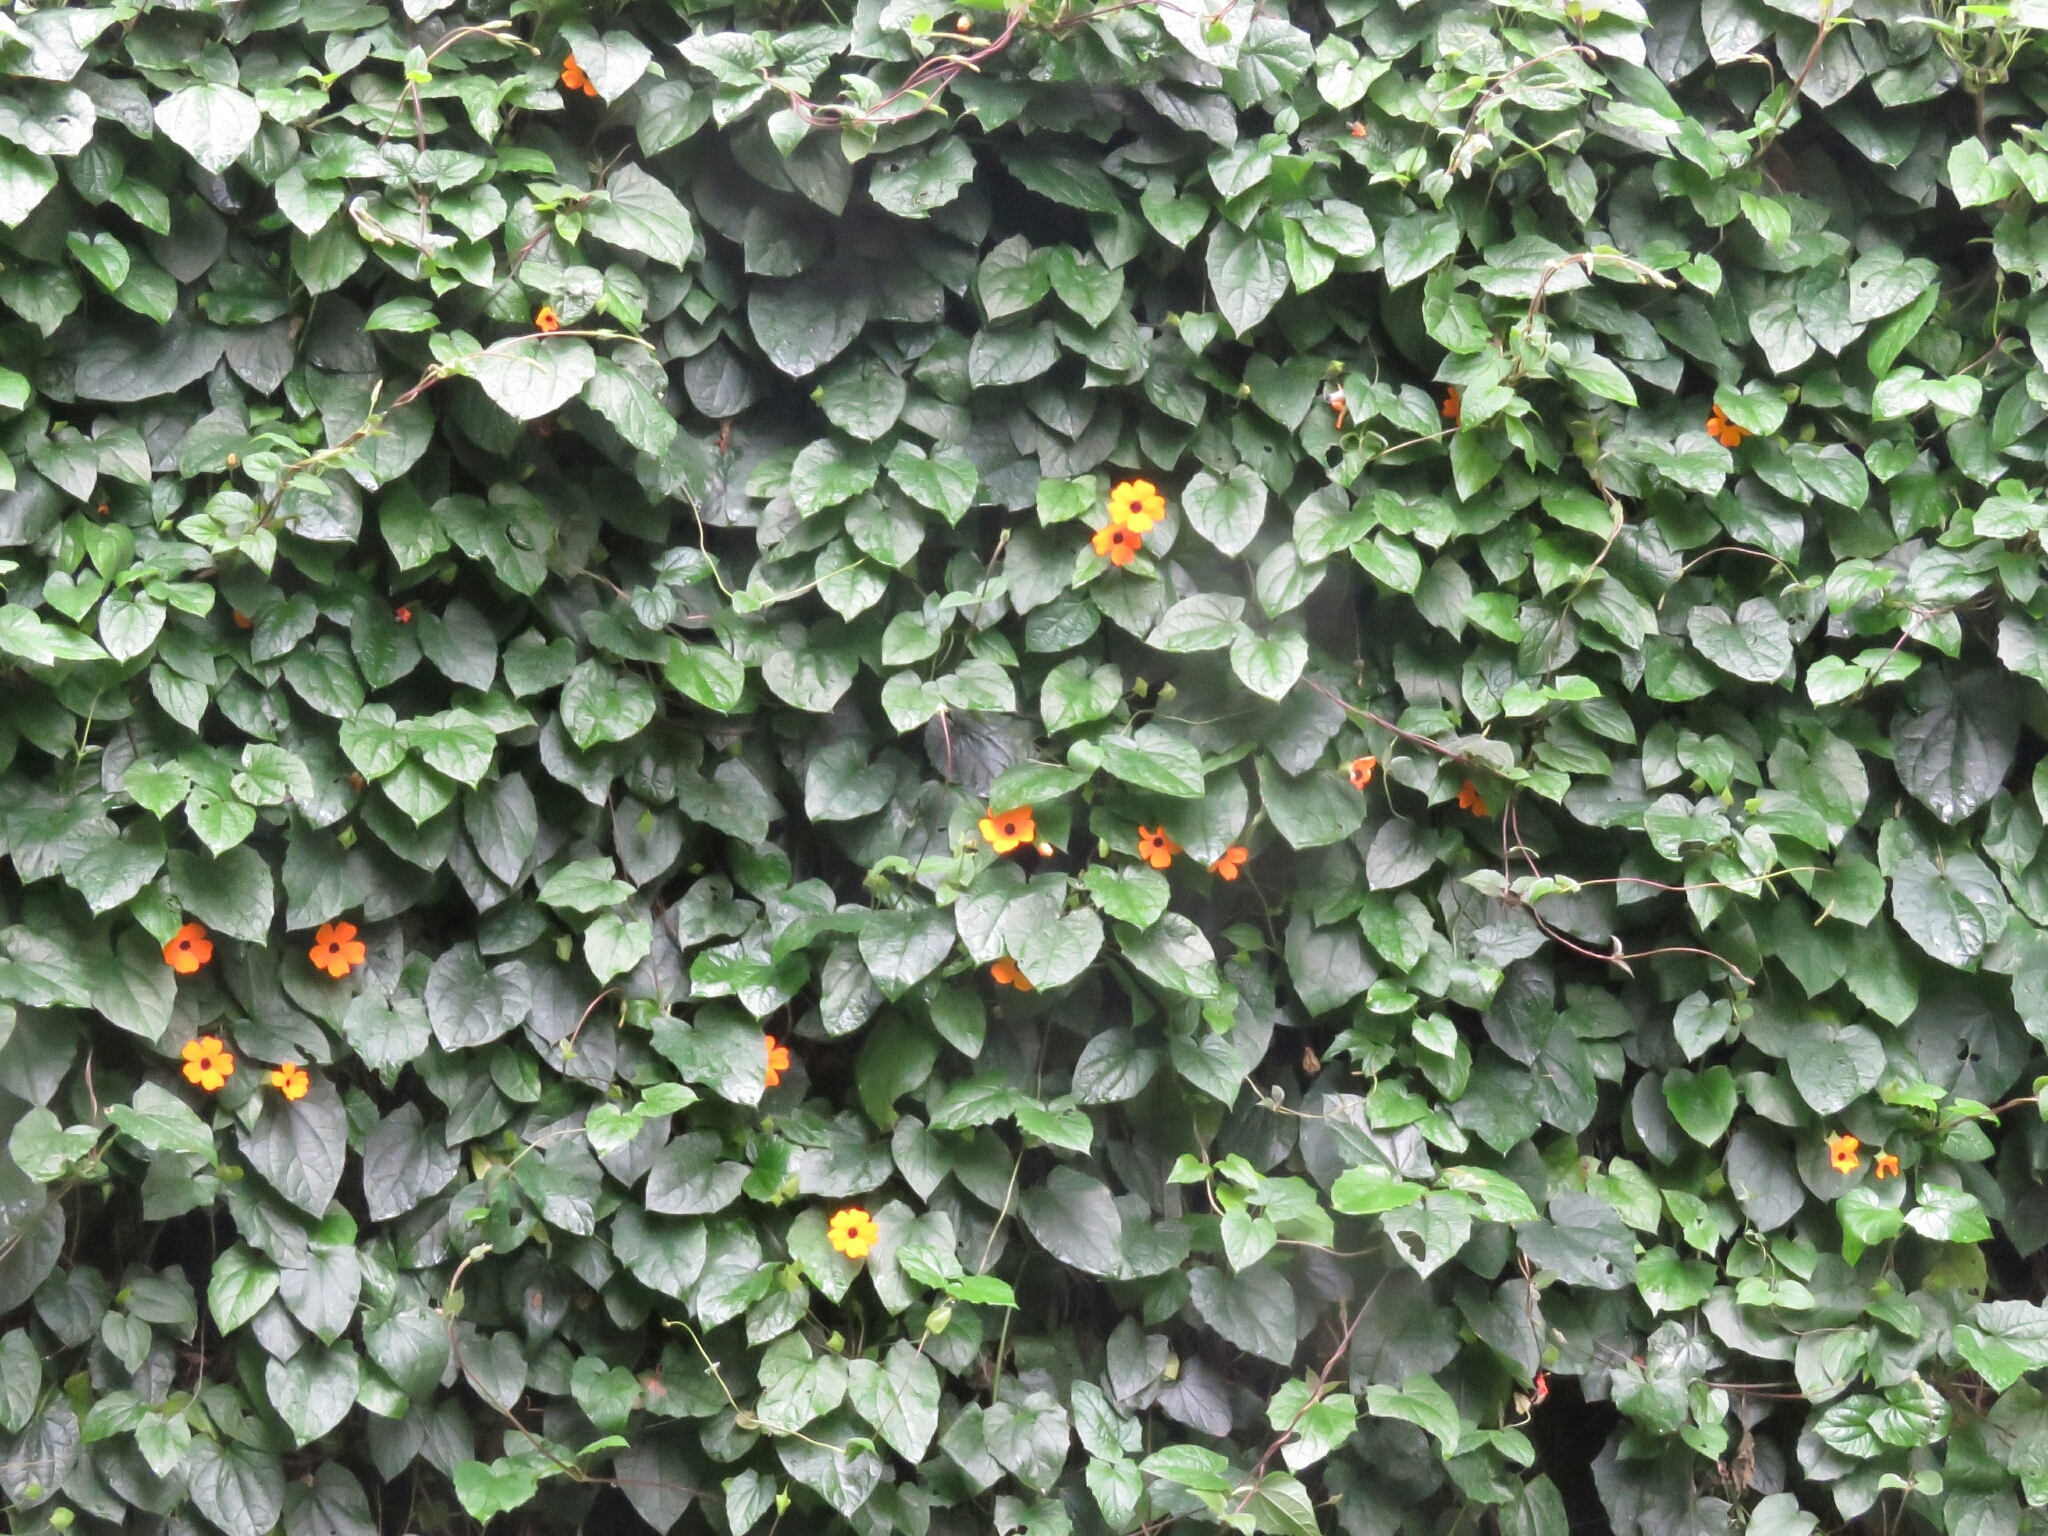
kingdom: Plantae
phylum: Tracheophyta
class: Magnoliopsida
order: Lamiales
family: Acanthaceae
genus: Thunbergia
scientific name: Thunbergia alata
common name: Blackeyed susan vine
